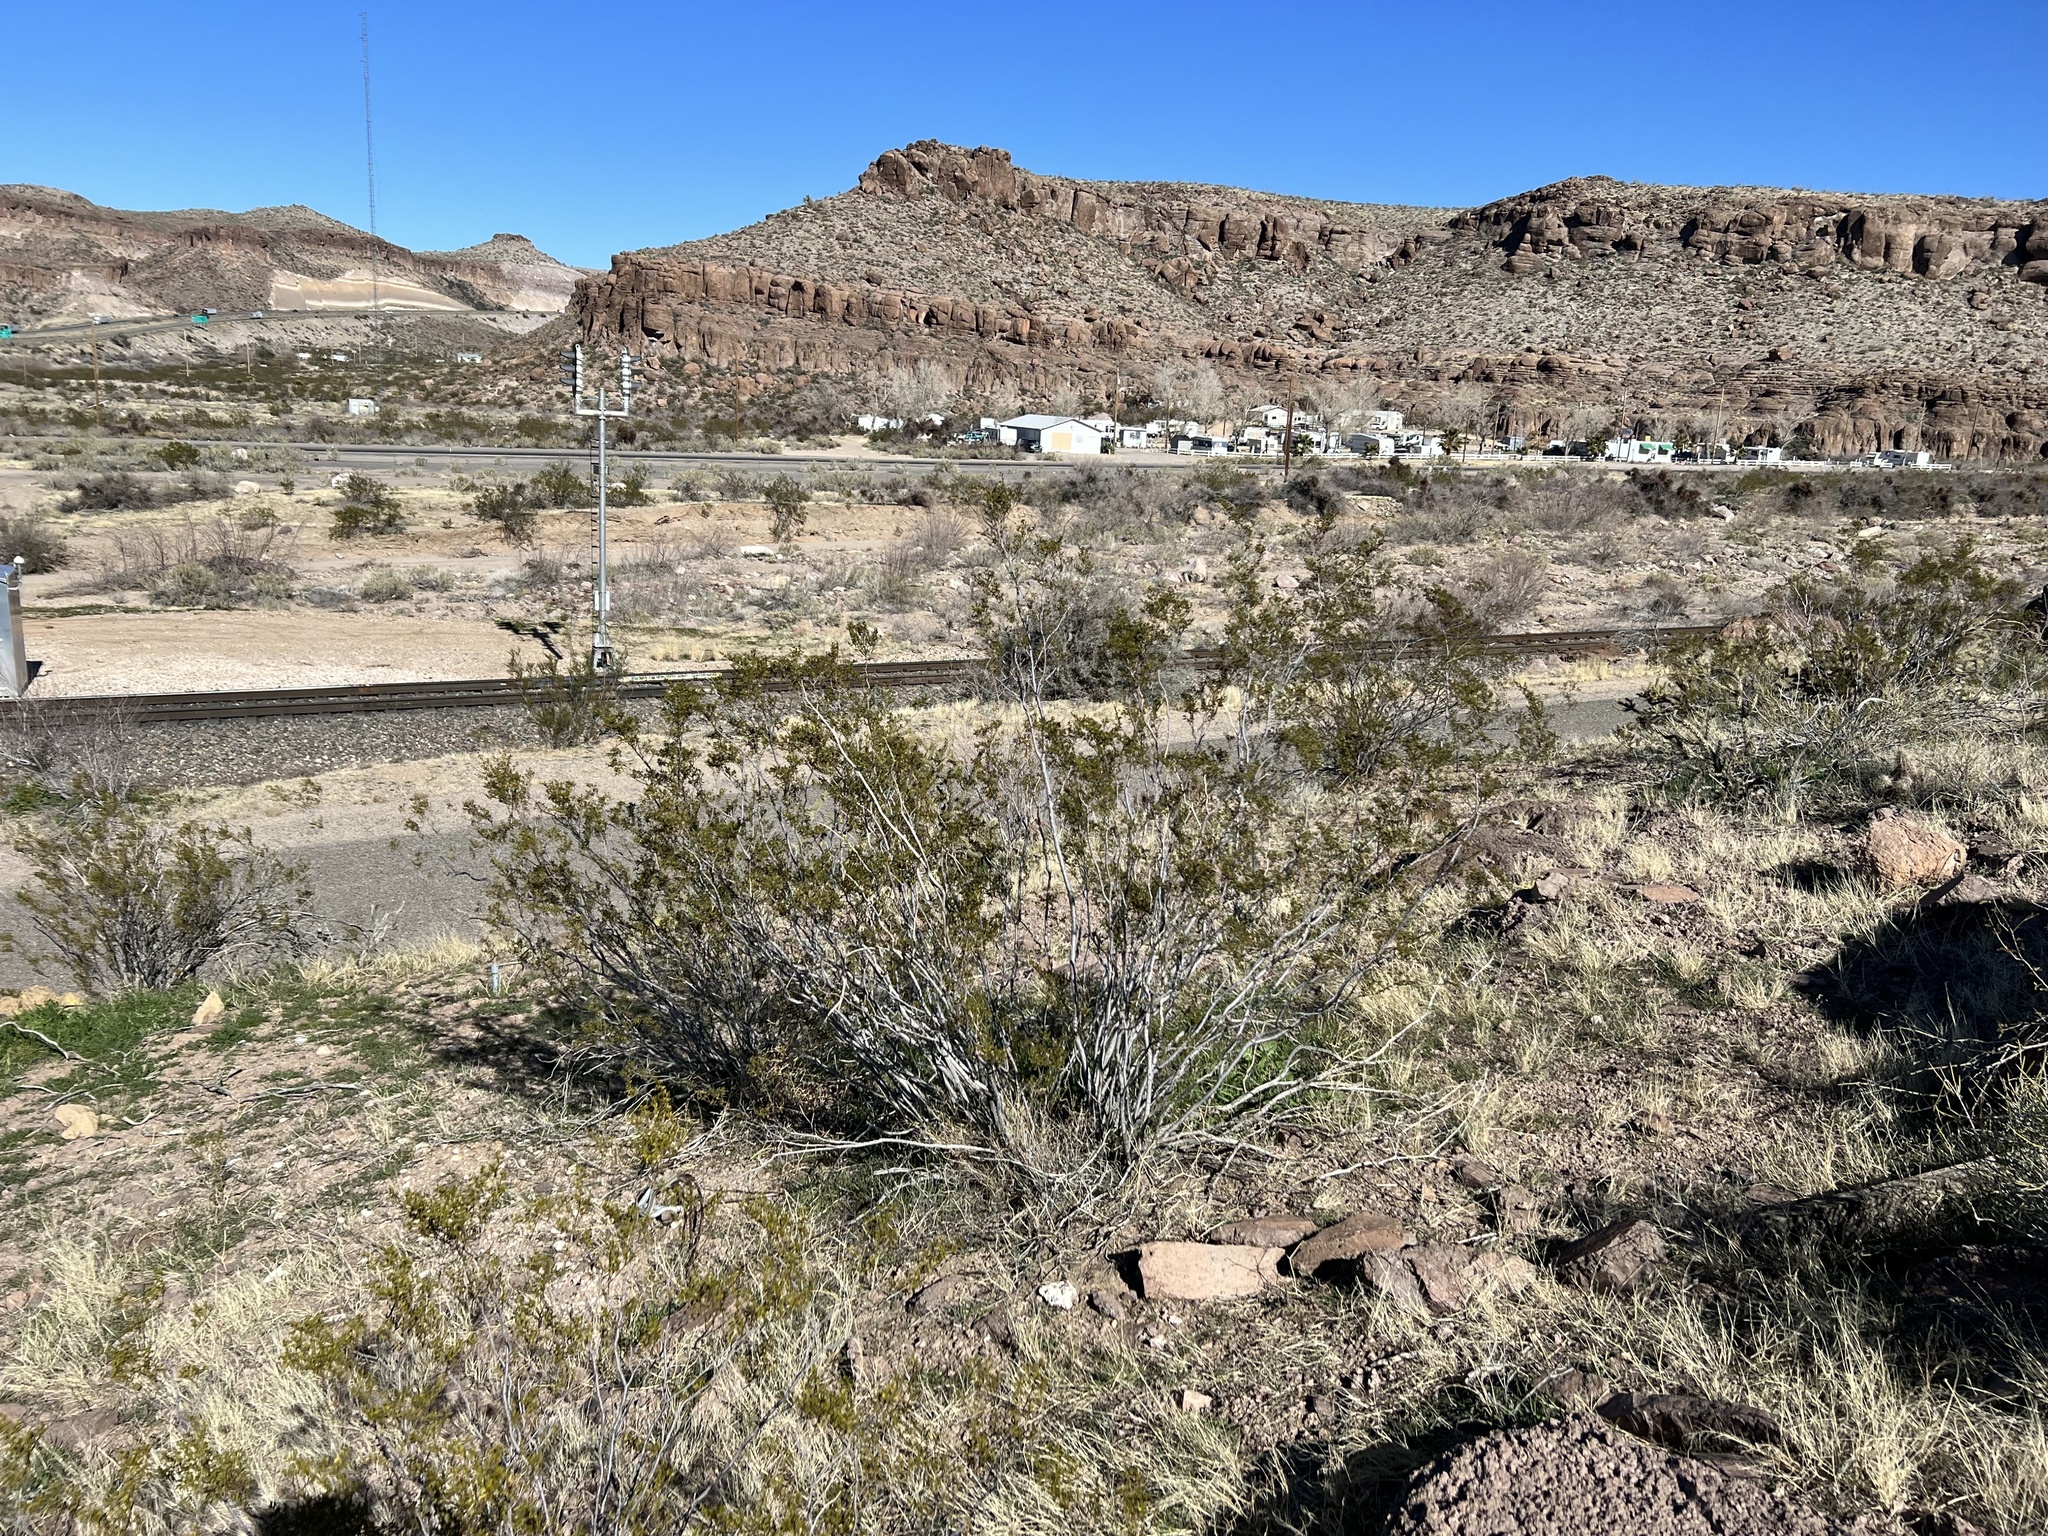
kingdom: Plantae
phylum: Tracheophyta
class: Magnoliopsida
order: Zygophyllales
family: Zygophyllaceae
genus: Larrea
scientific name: Larrea tridentata
